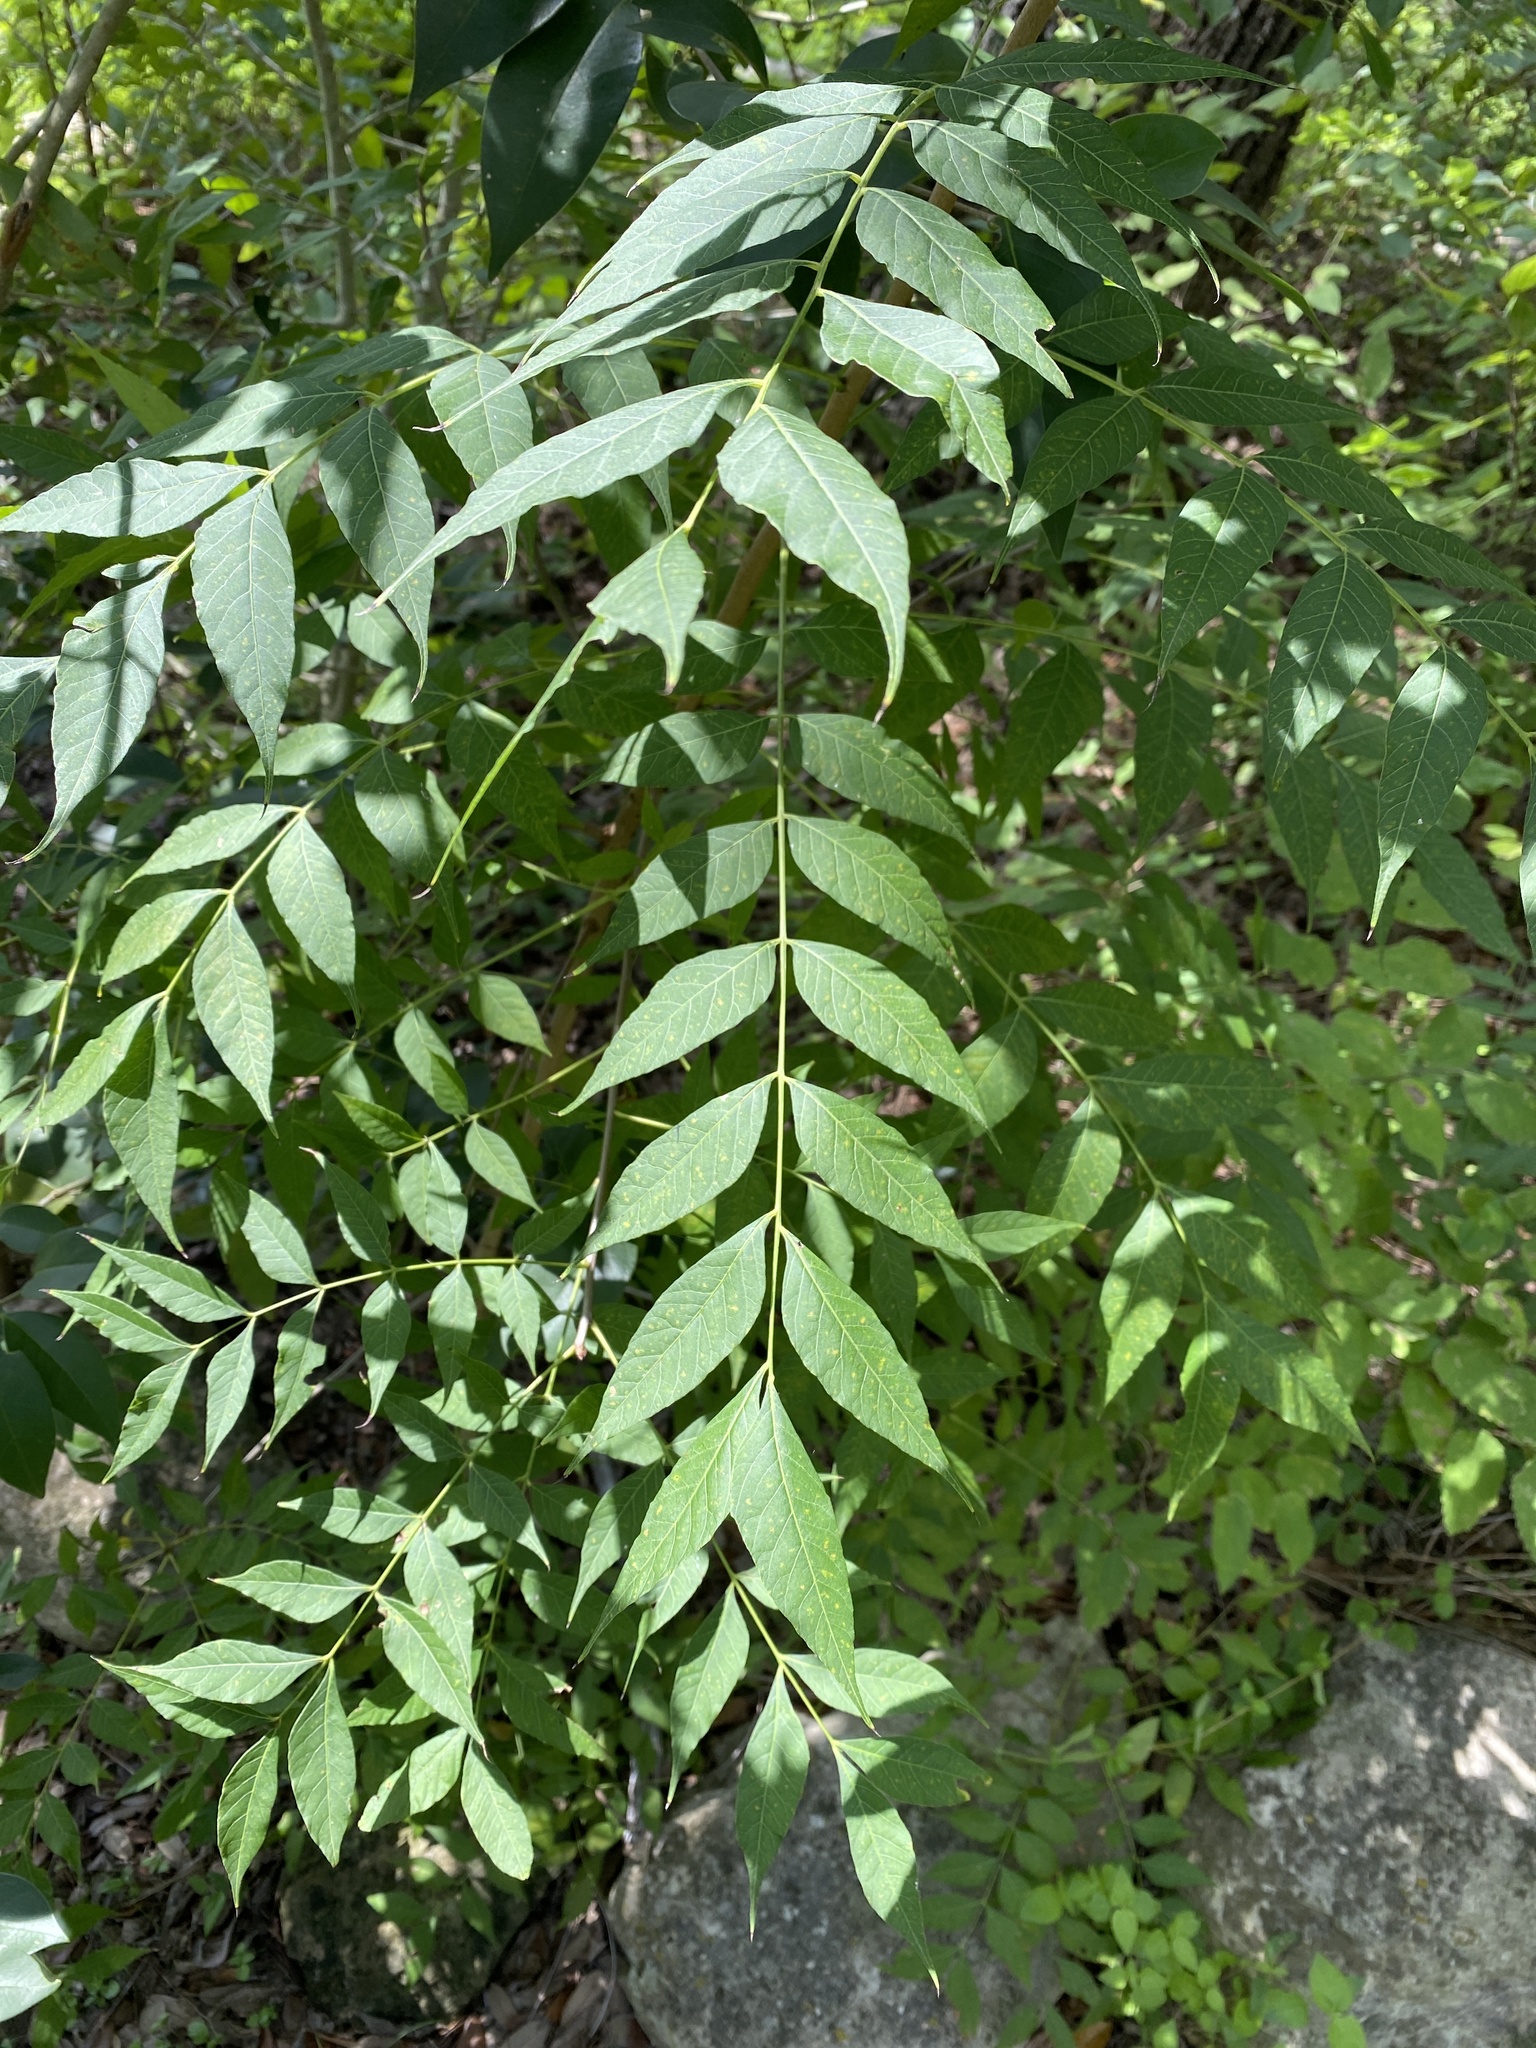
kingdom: Plantae
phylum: Tracheophyta
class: Magnoliopsida
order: Sapindales
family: Anacardiaceae
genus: Pistacia
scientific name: Pistacia chinensis
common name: Chinese pistache
